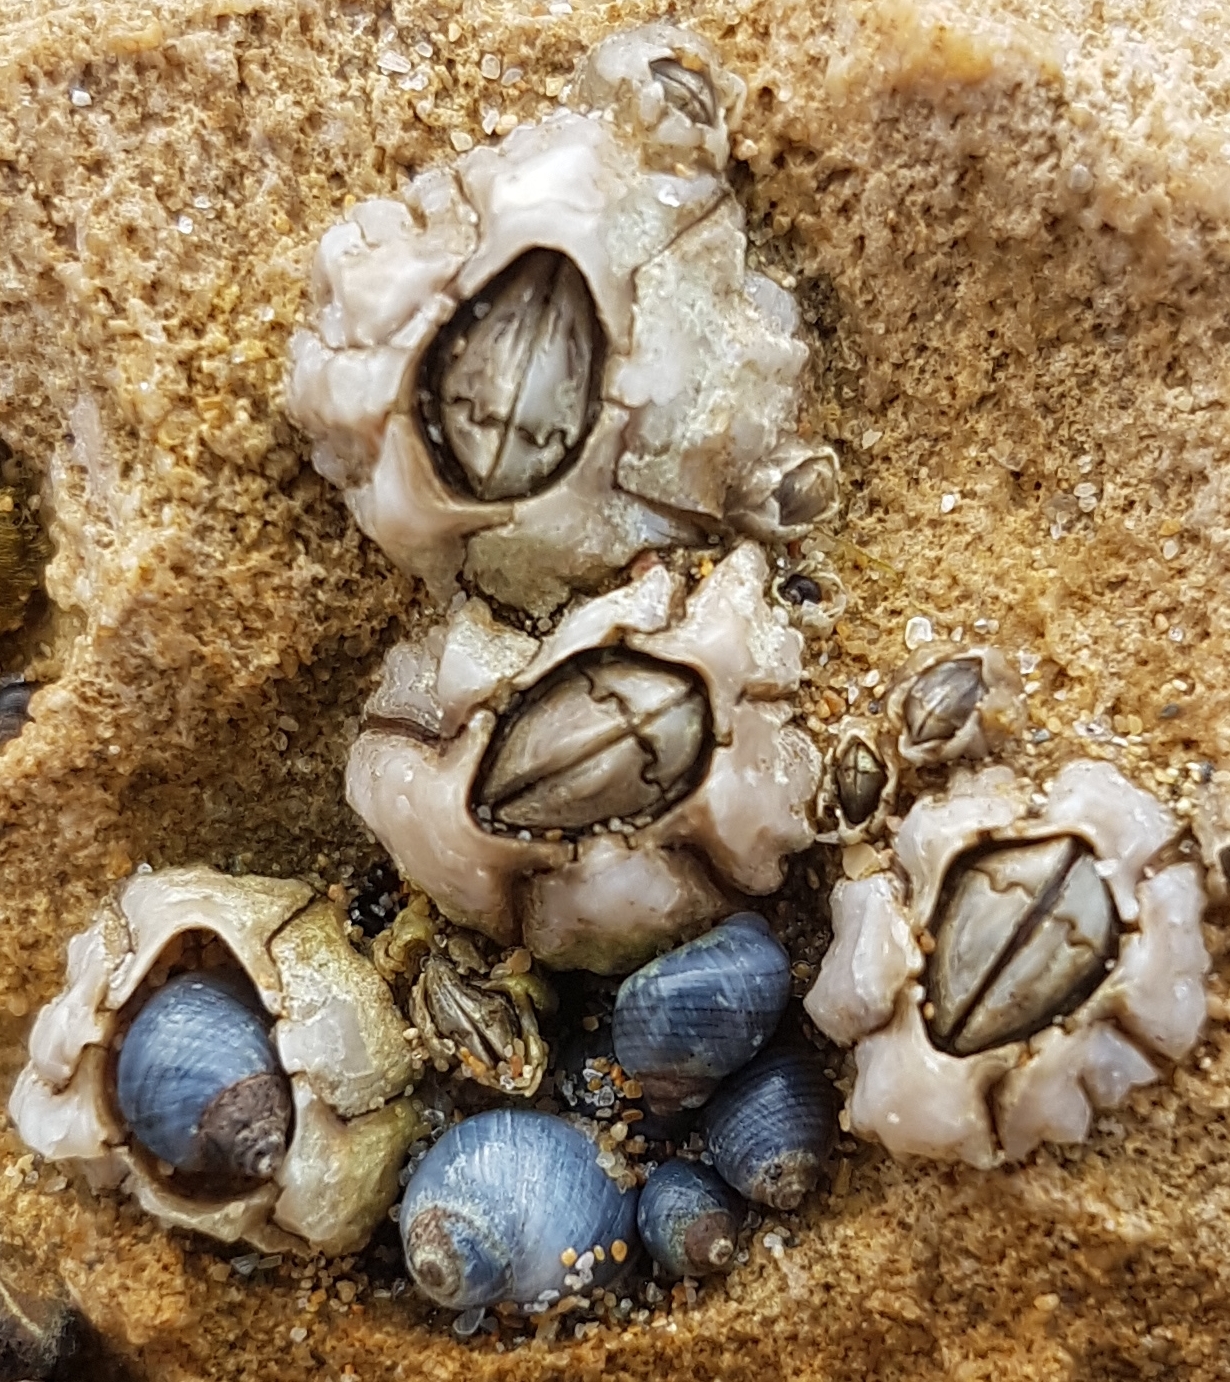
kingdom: Animalia
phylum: Arthropoda
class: Maxillopoda
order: Sessilia
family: Chthamalidae
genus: Chthamalus
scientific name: Chthamalus antennatus
